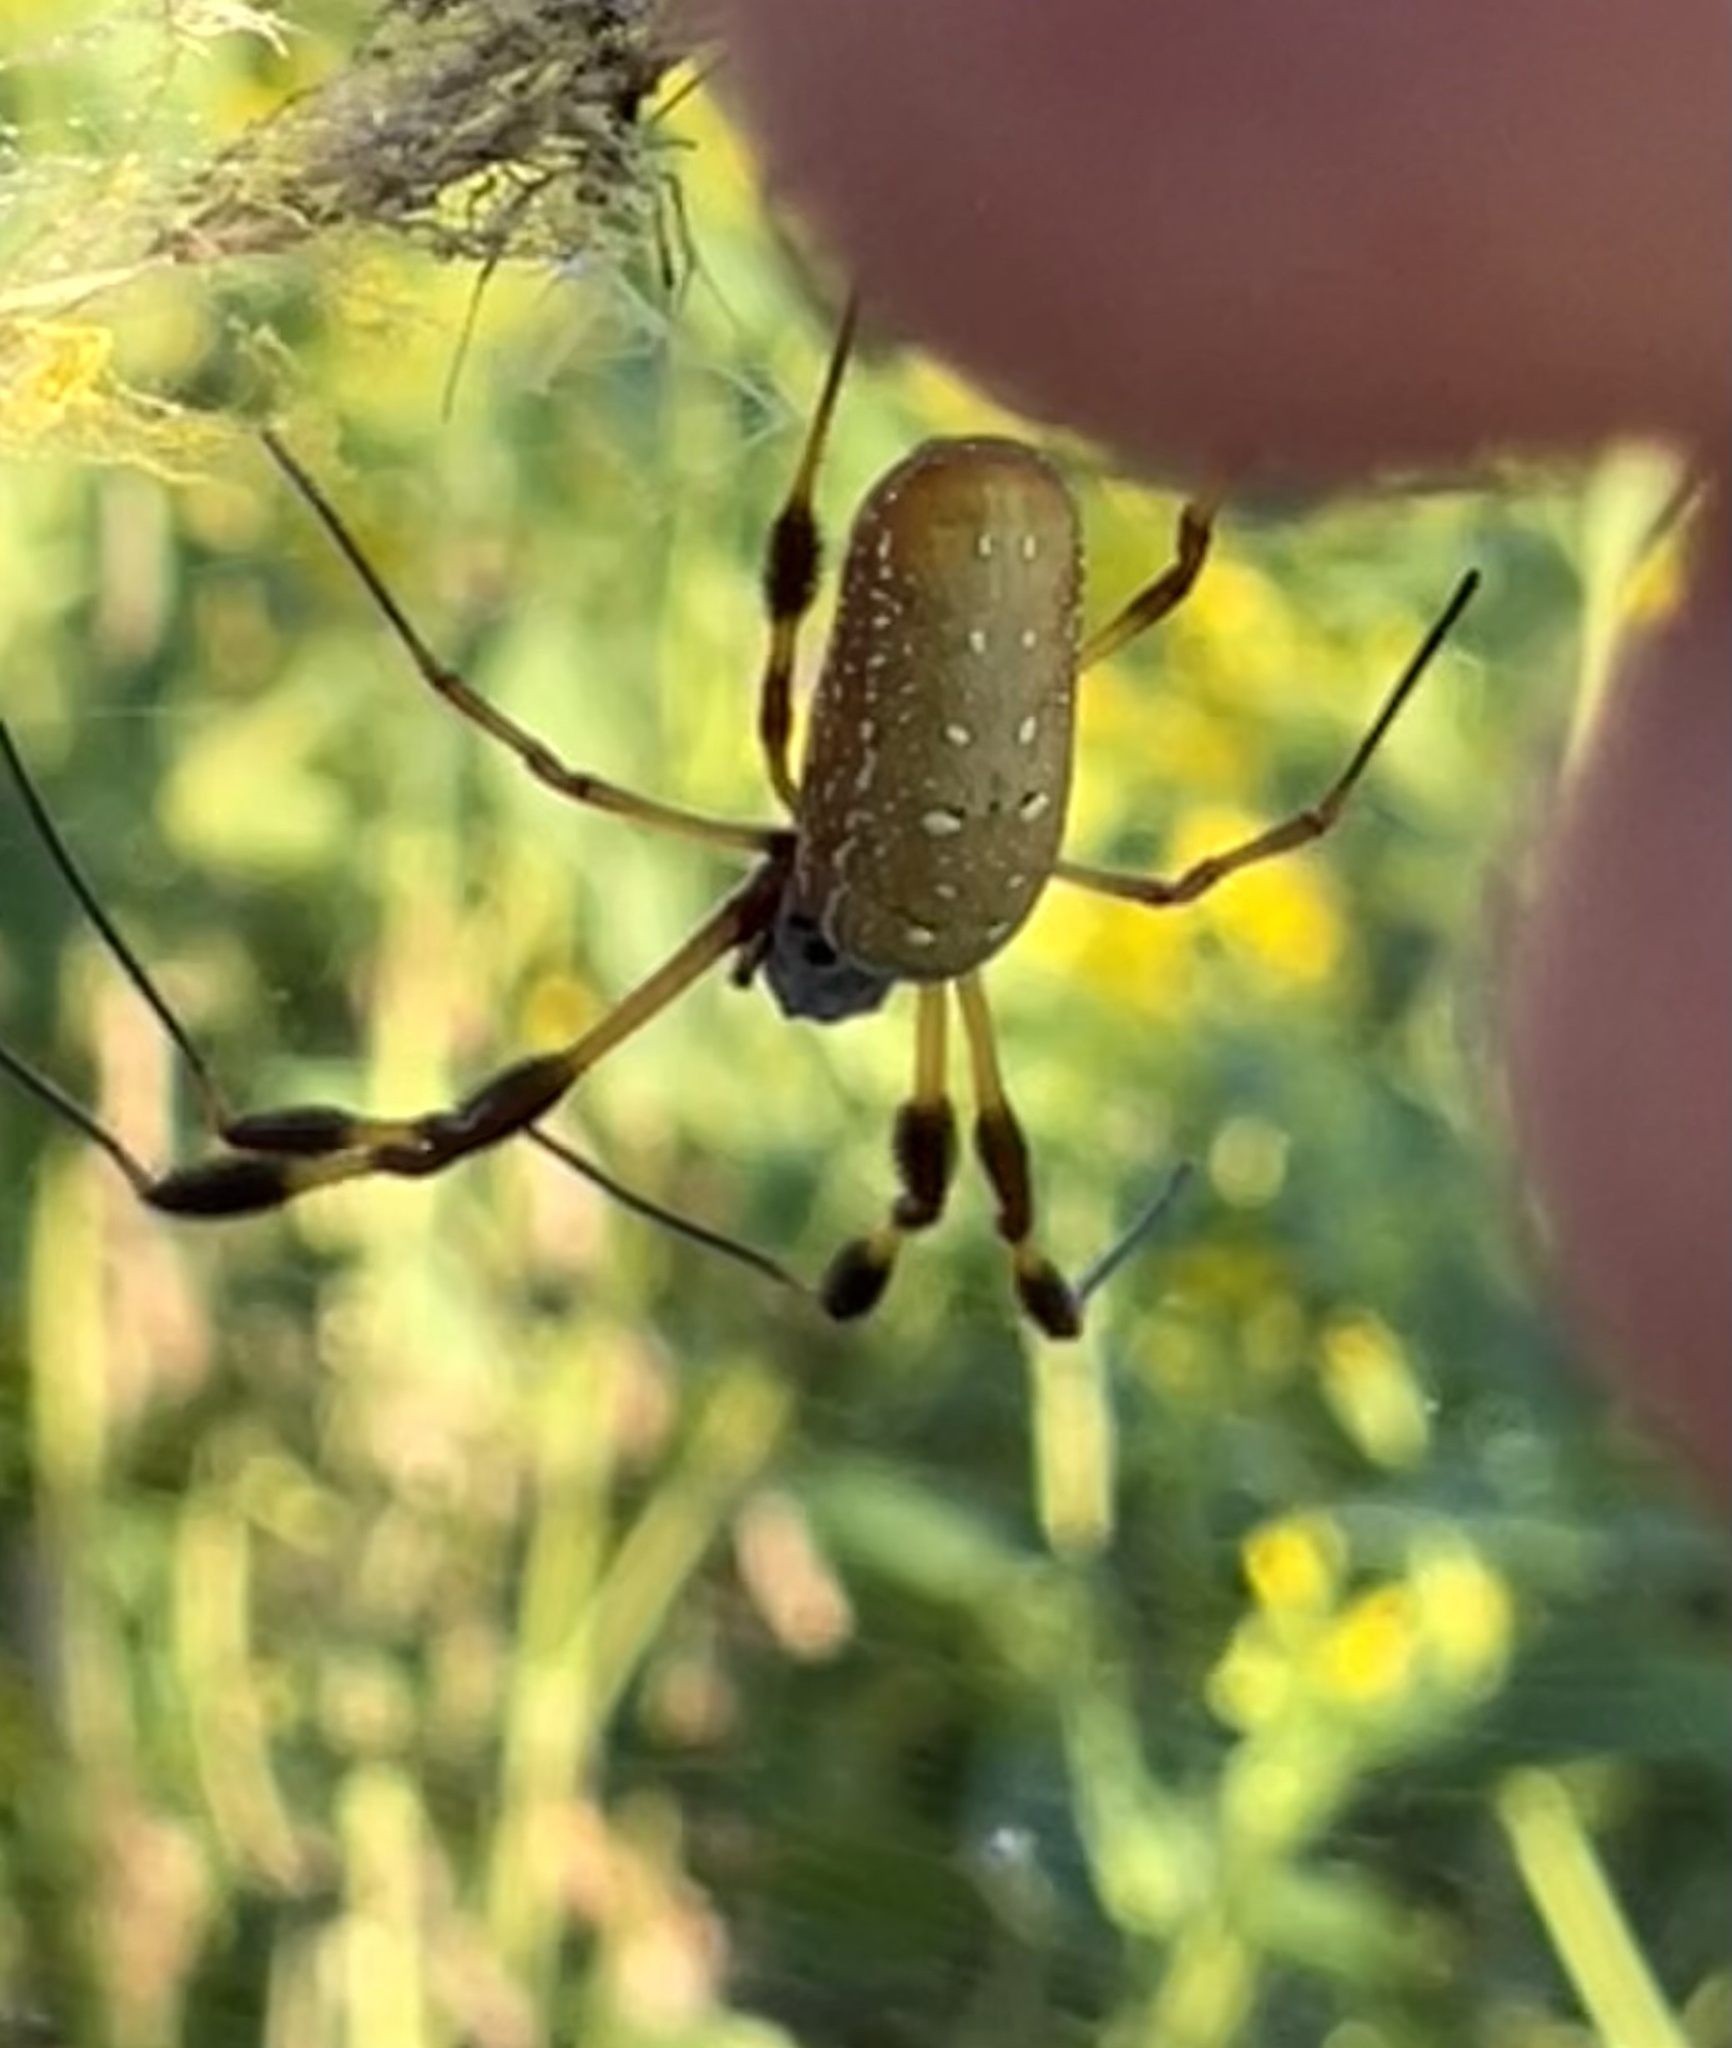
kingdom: Animalia
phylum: Arthropoda
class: Arachnida
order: Araneae
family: Araneidae
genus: Trichonephila
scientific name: Trichonephila clavipes
